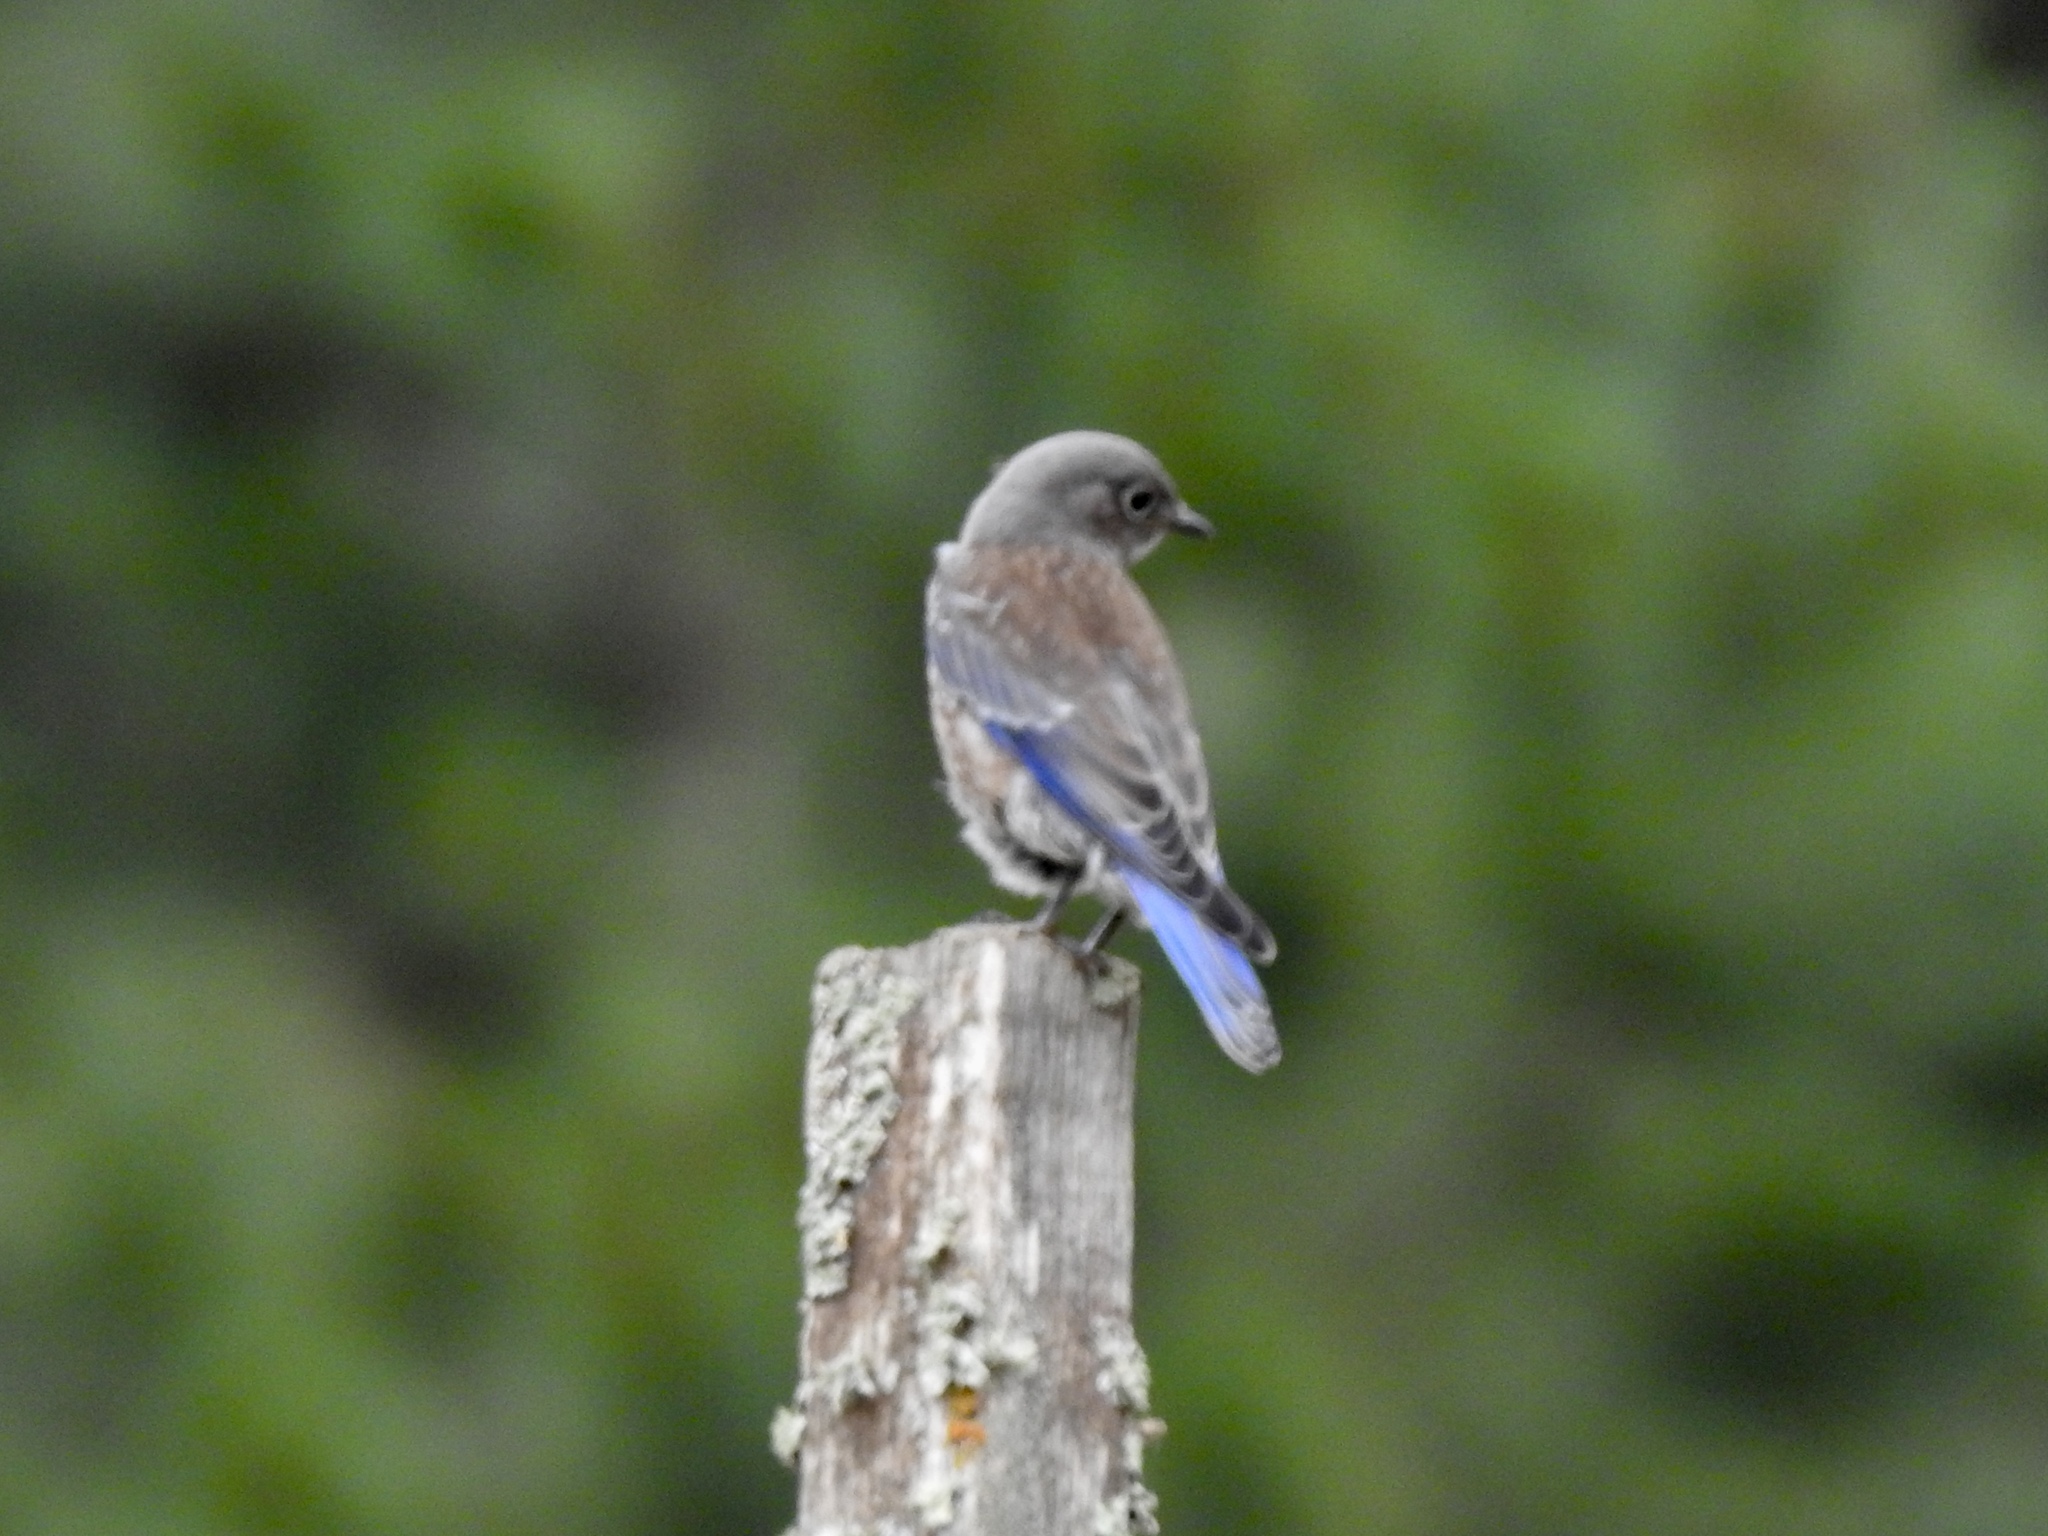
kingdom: Animalia
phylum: Chordata
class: Aves
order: Passeriformes
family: Turdidae
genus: Sialia
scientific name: Sialia mexicana
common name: Western bluebird
